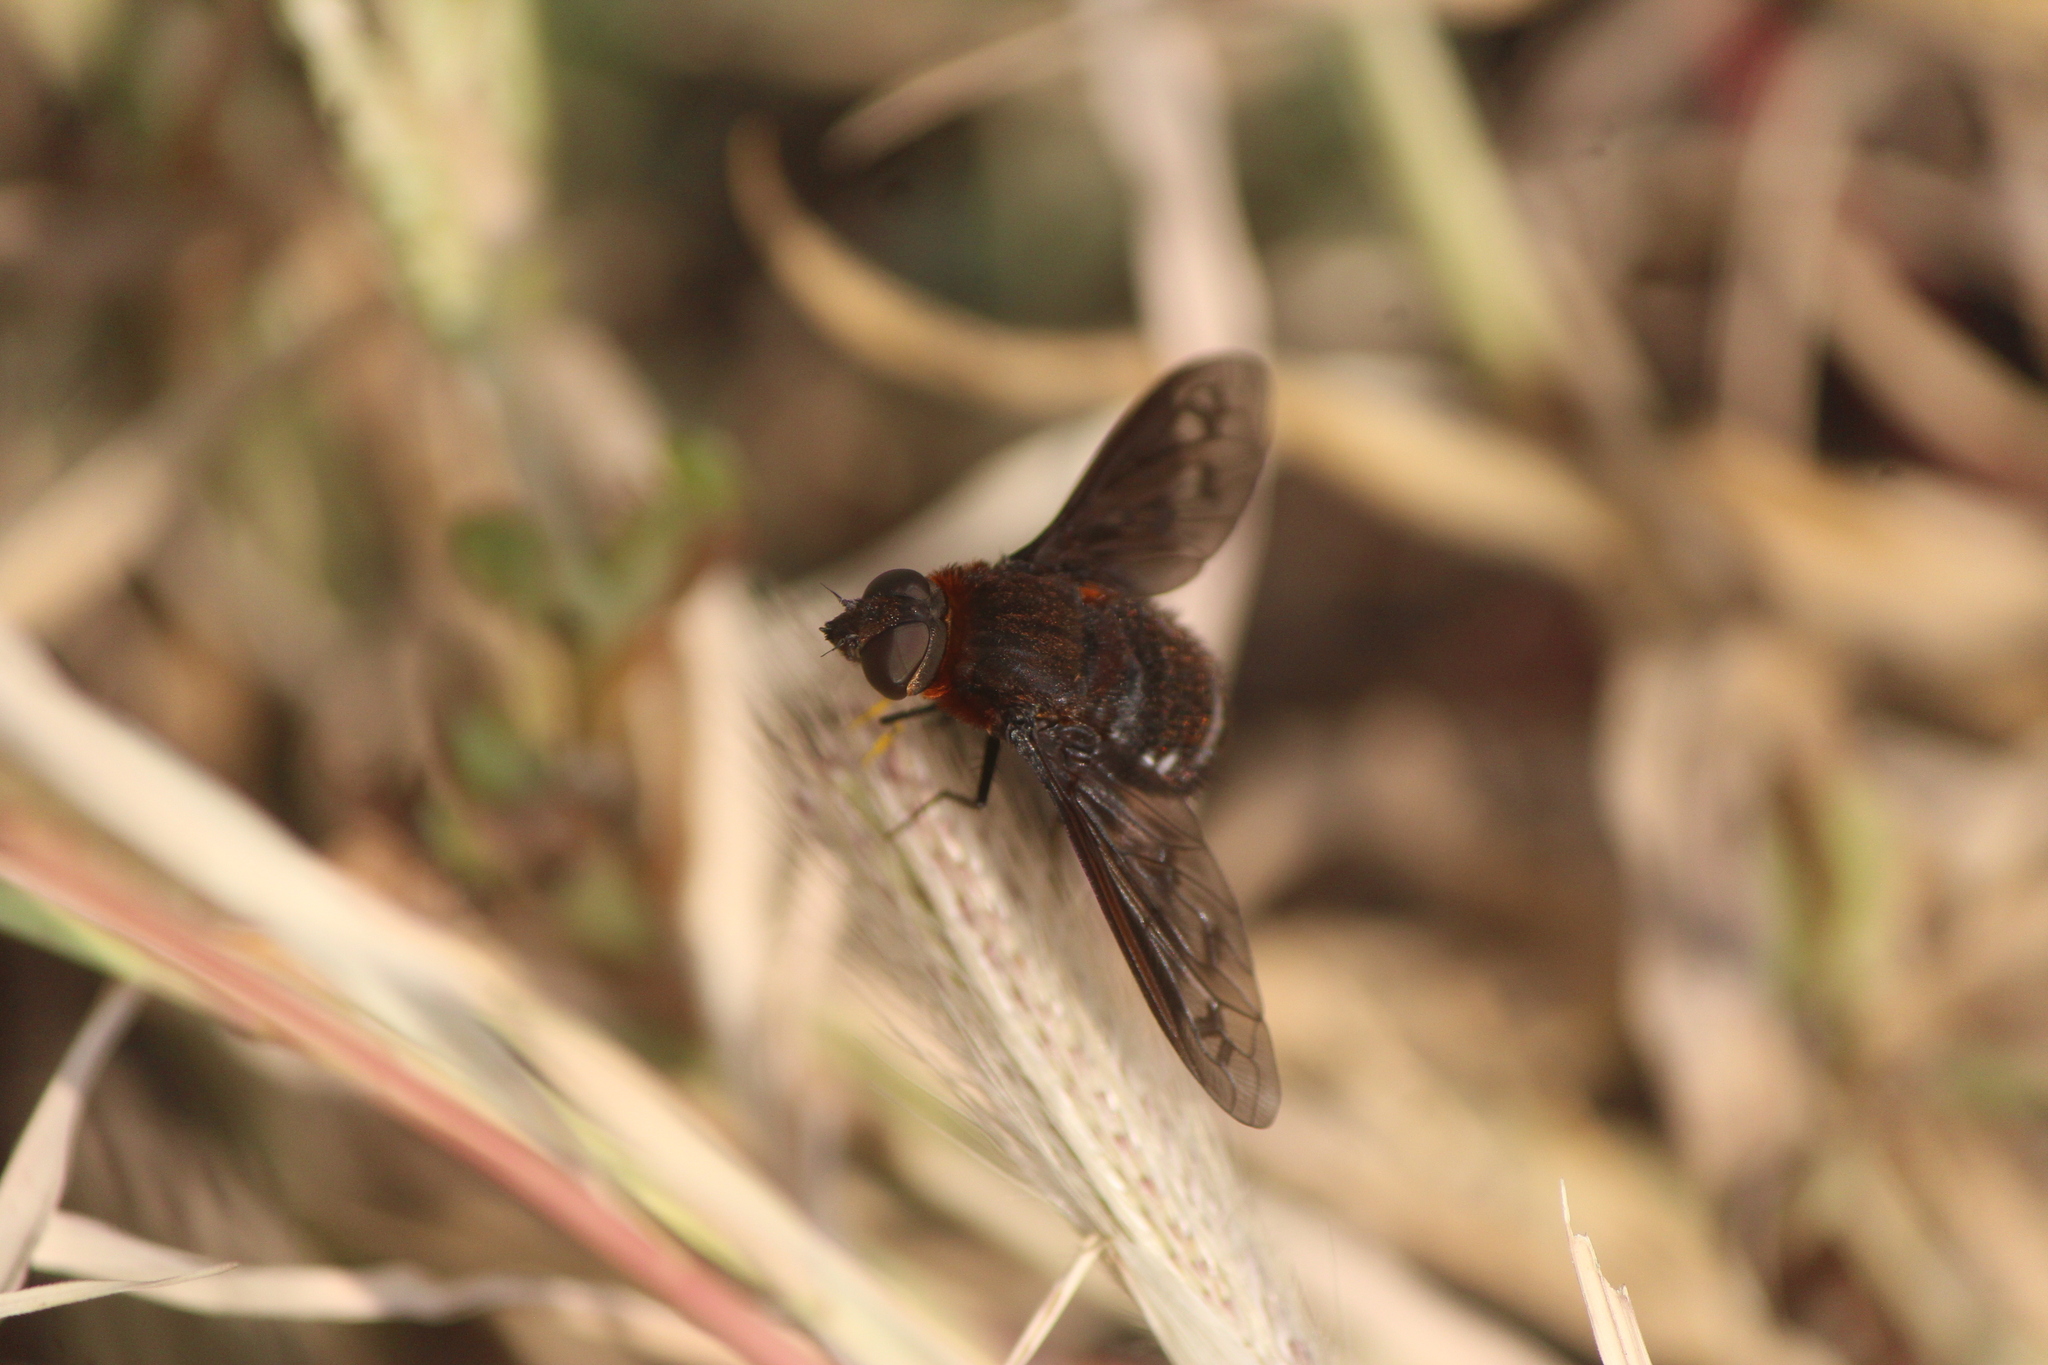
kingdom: Animalia
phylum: Arthropoda
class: Insecta
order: Diptera
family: Bombyliidae
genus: Nyia
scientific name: Nyia orcus
